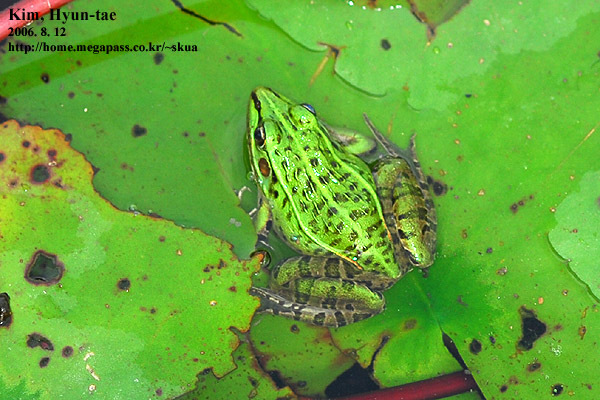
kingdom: Animalia
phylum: Chordata
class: Amphibia
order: Anura
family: Ranidae
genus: Pelophylax
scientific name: Pelophylax nigromaculatus
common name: Black-spotted pond frog
